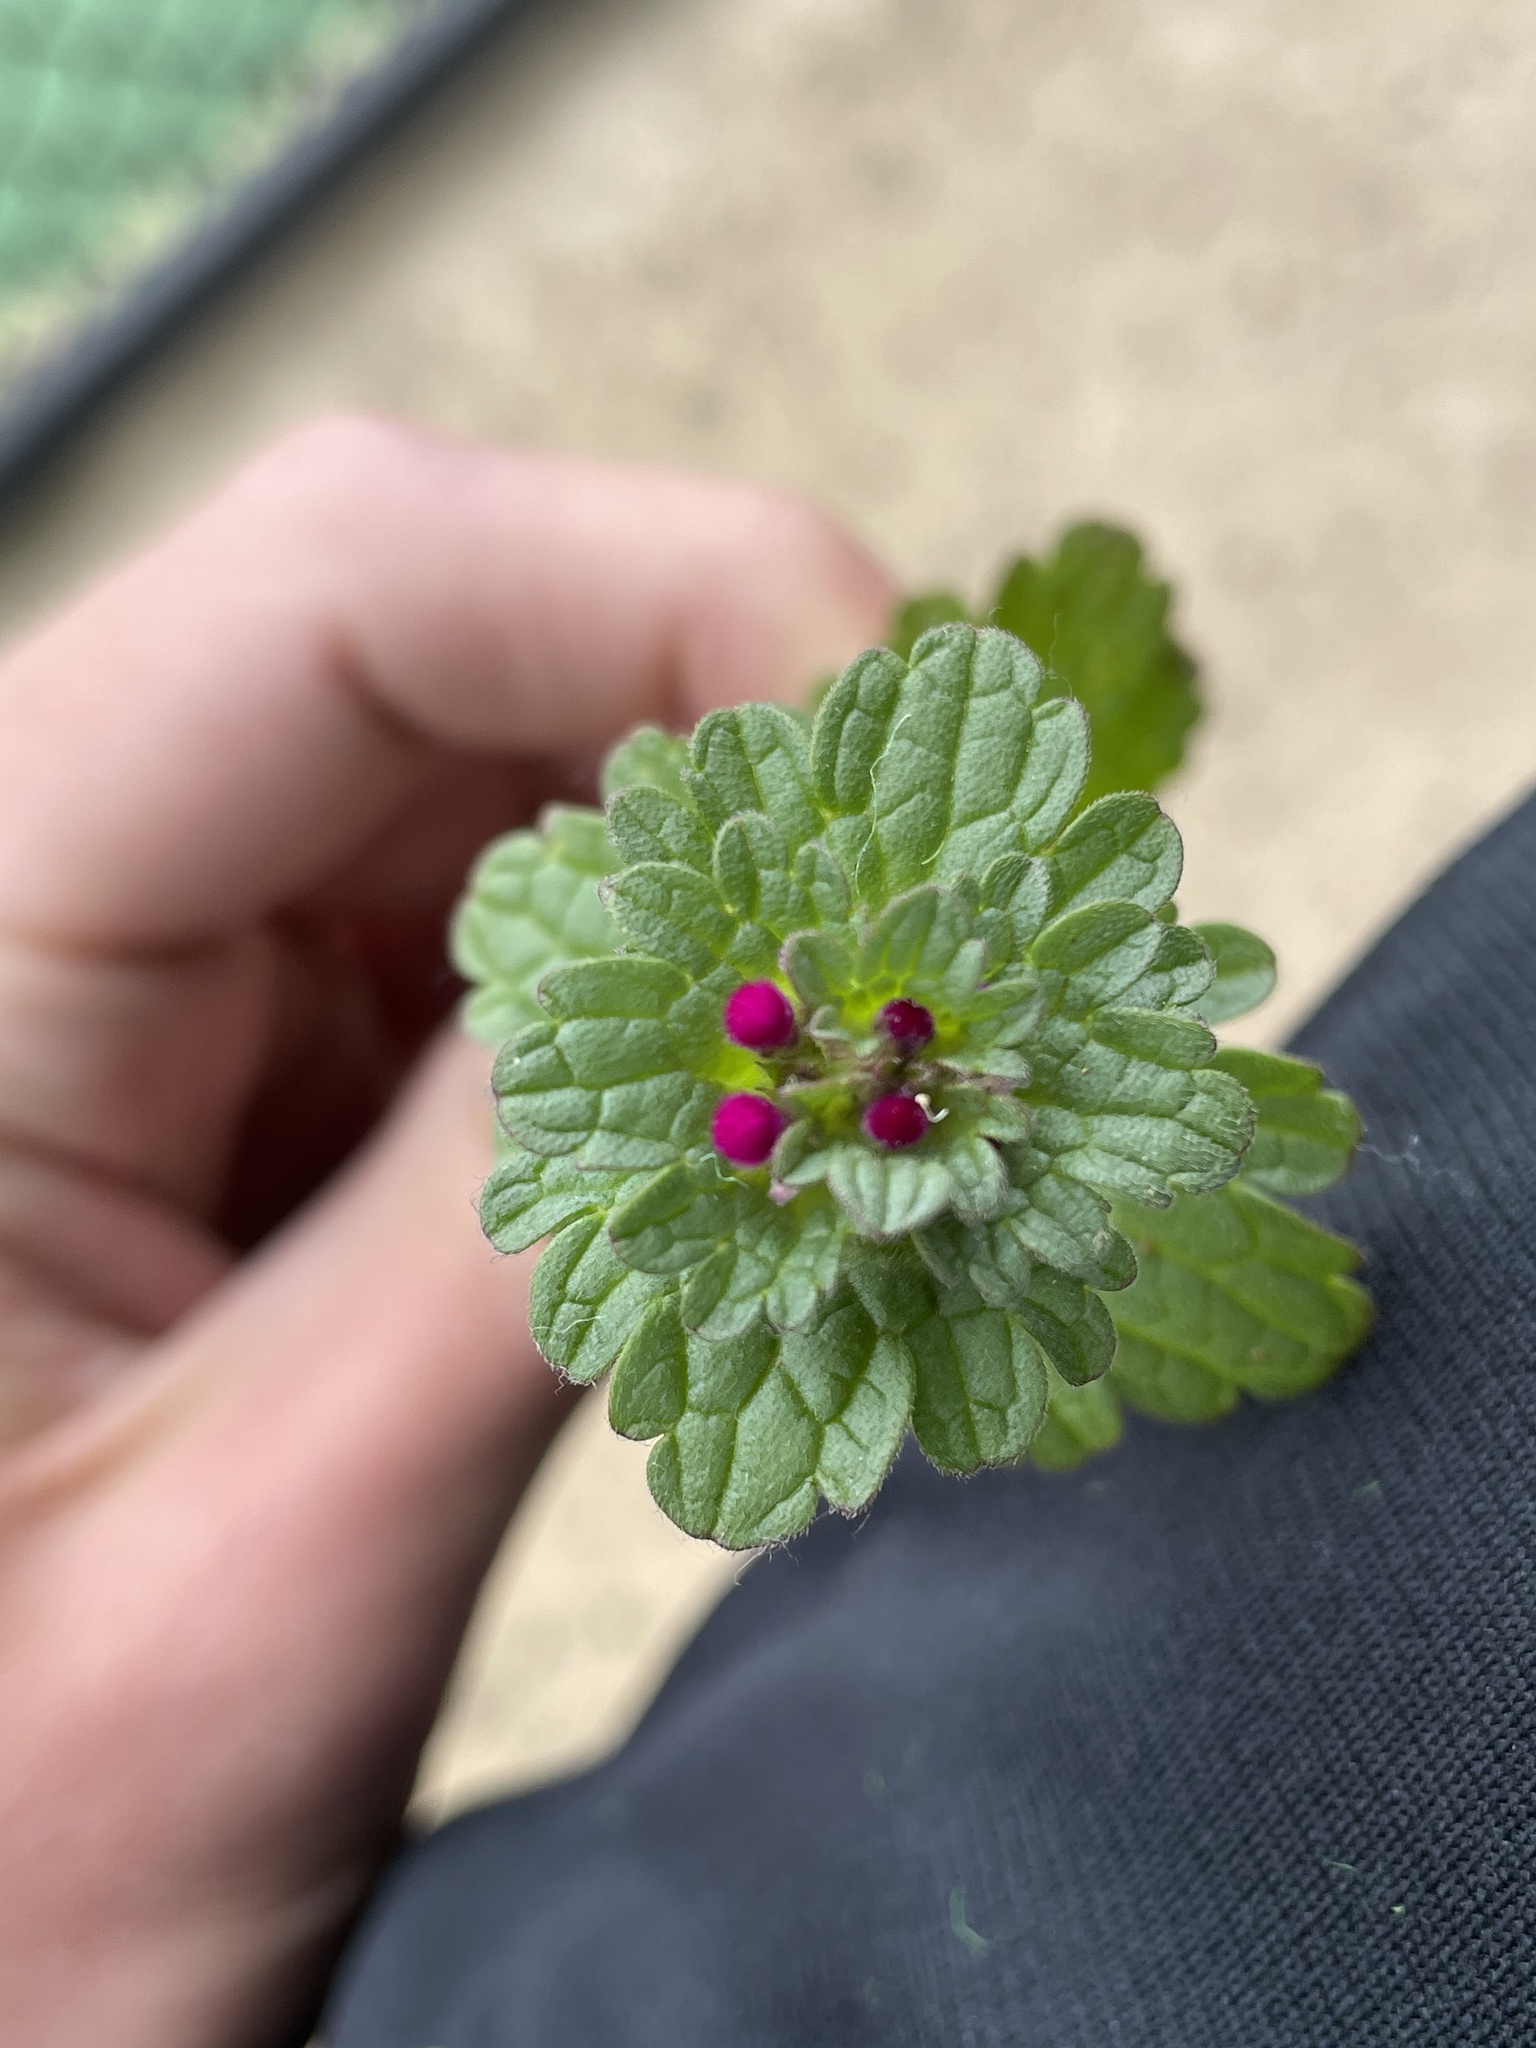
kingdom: Plantae
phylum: Tracheophyta
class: Magnoliopsida
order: Lamiales
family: Lamiaceae
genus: Lamium
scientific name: Lamium amplexicaule
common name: Henbit dead-nettle
